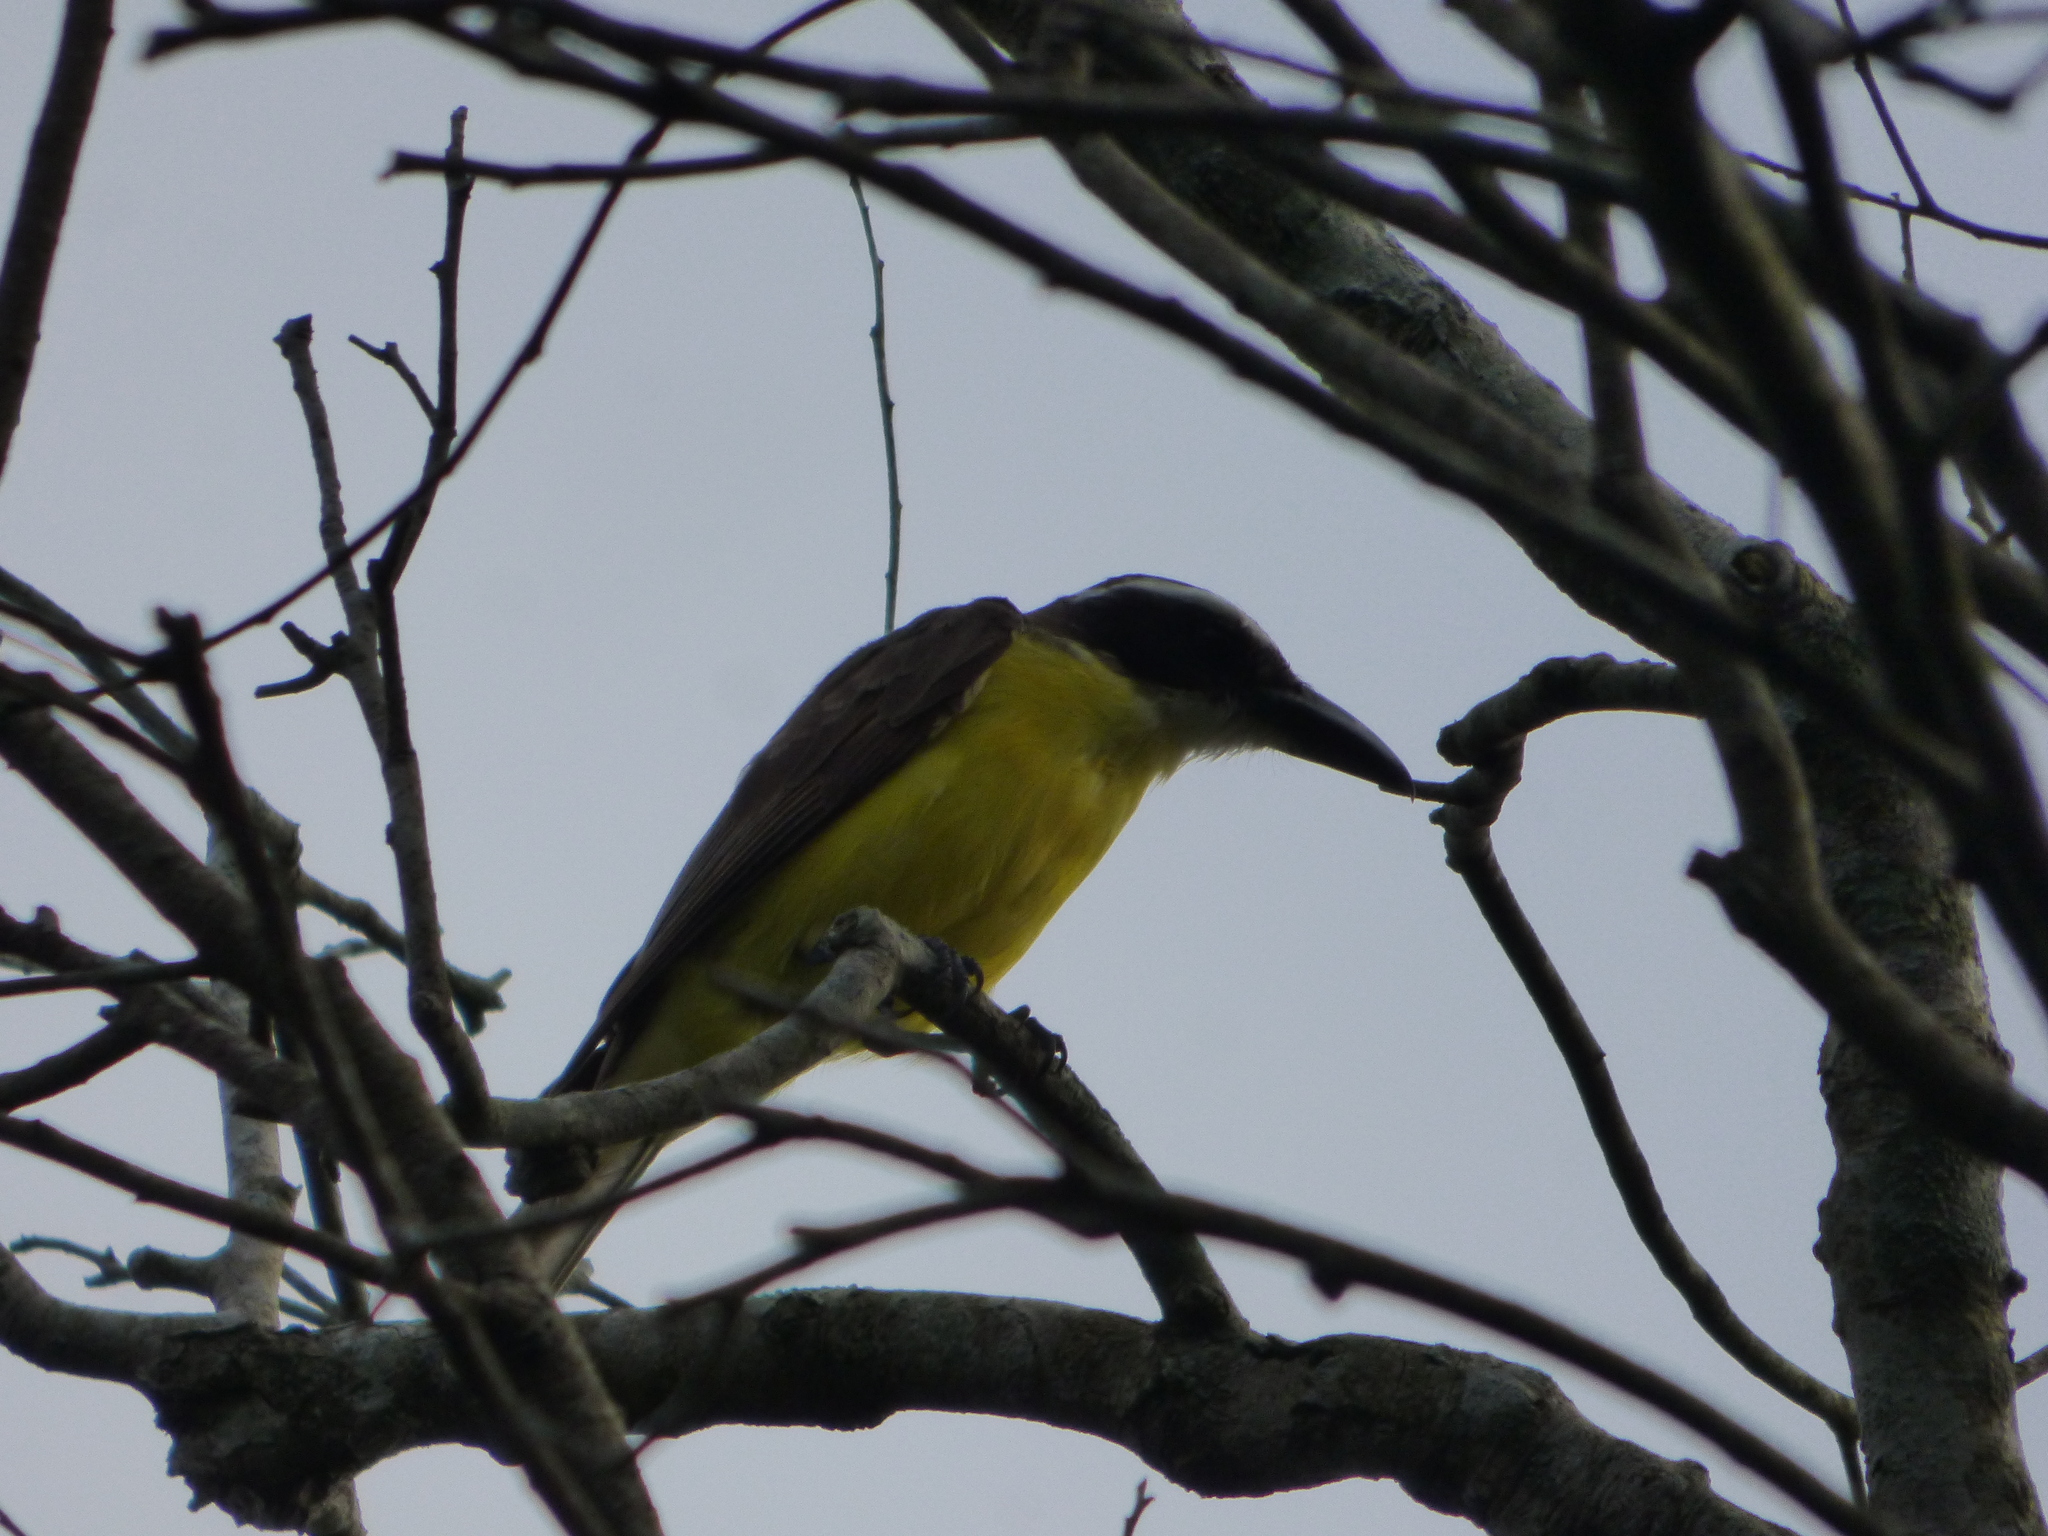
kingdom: Animalia
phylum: Chordata
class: Aves
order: Passeriformes
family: Tyrannidae
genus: Megarynchus
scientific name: Megarynchus pitangua
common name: Boat-billed flycatcher
